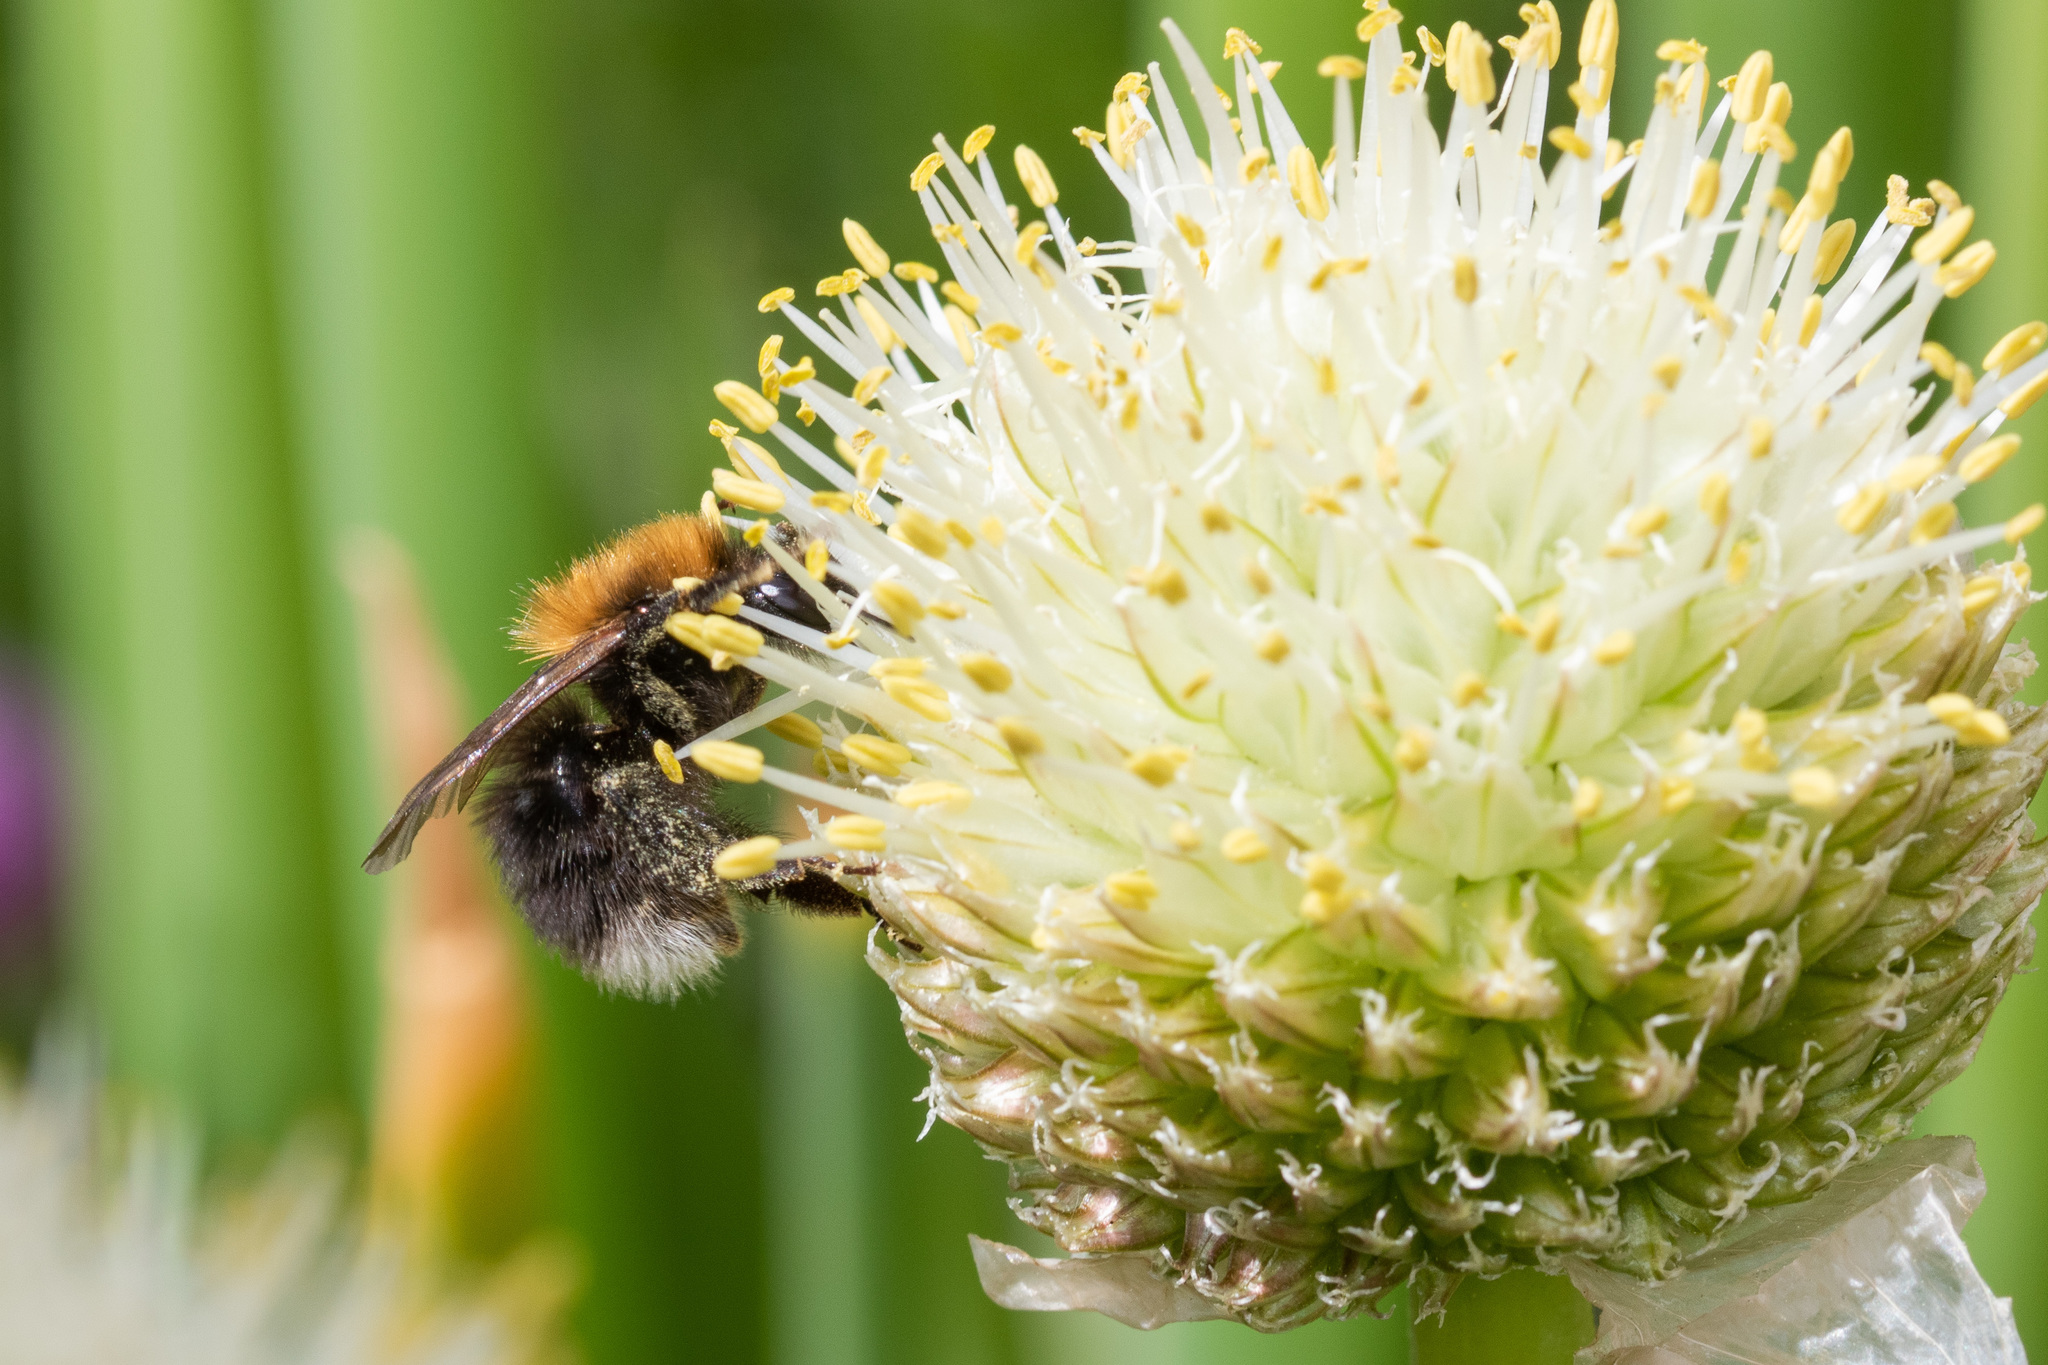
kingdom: Animalia
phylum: Arthropoda
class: Insecta
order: Hymenoptera
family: Apidae
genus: Bombus
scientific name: Bombus hypnorum
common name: New garden bumblebee
